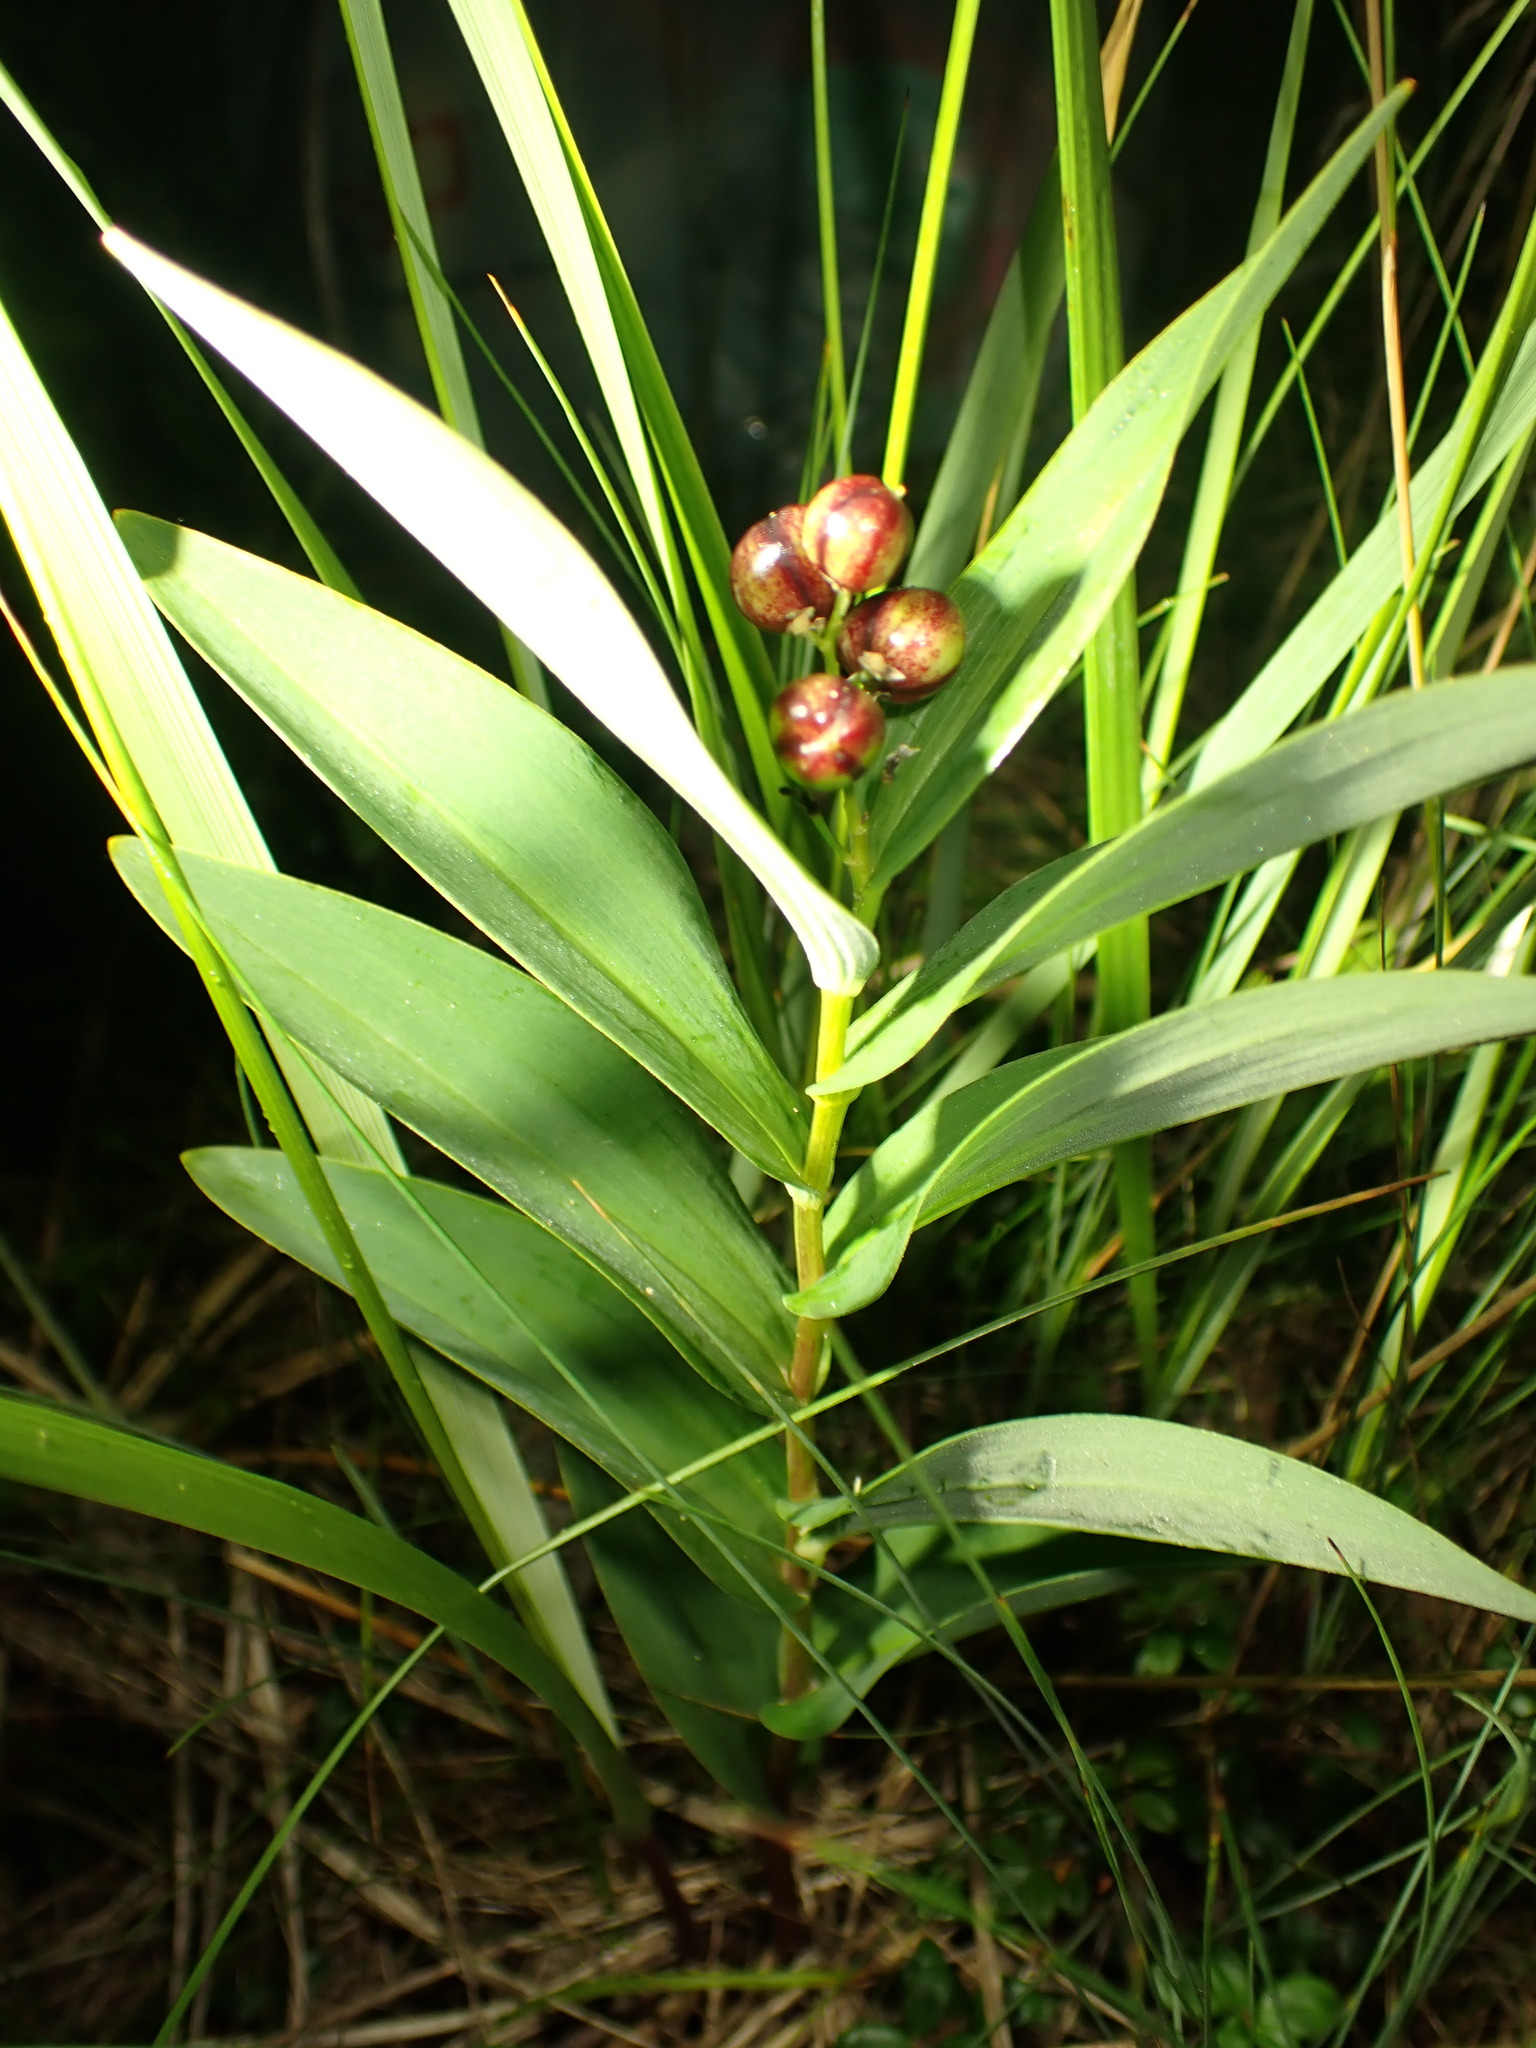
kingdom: Plantae
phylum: Tracheophyta
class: Liliopsida
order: Asparagales
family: Asparagaceae
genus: Maianthemum
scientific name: Maianthemum stellatum
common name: Little false solomon's seal
